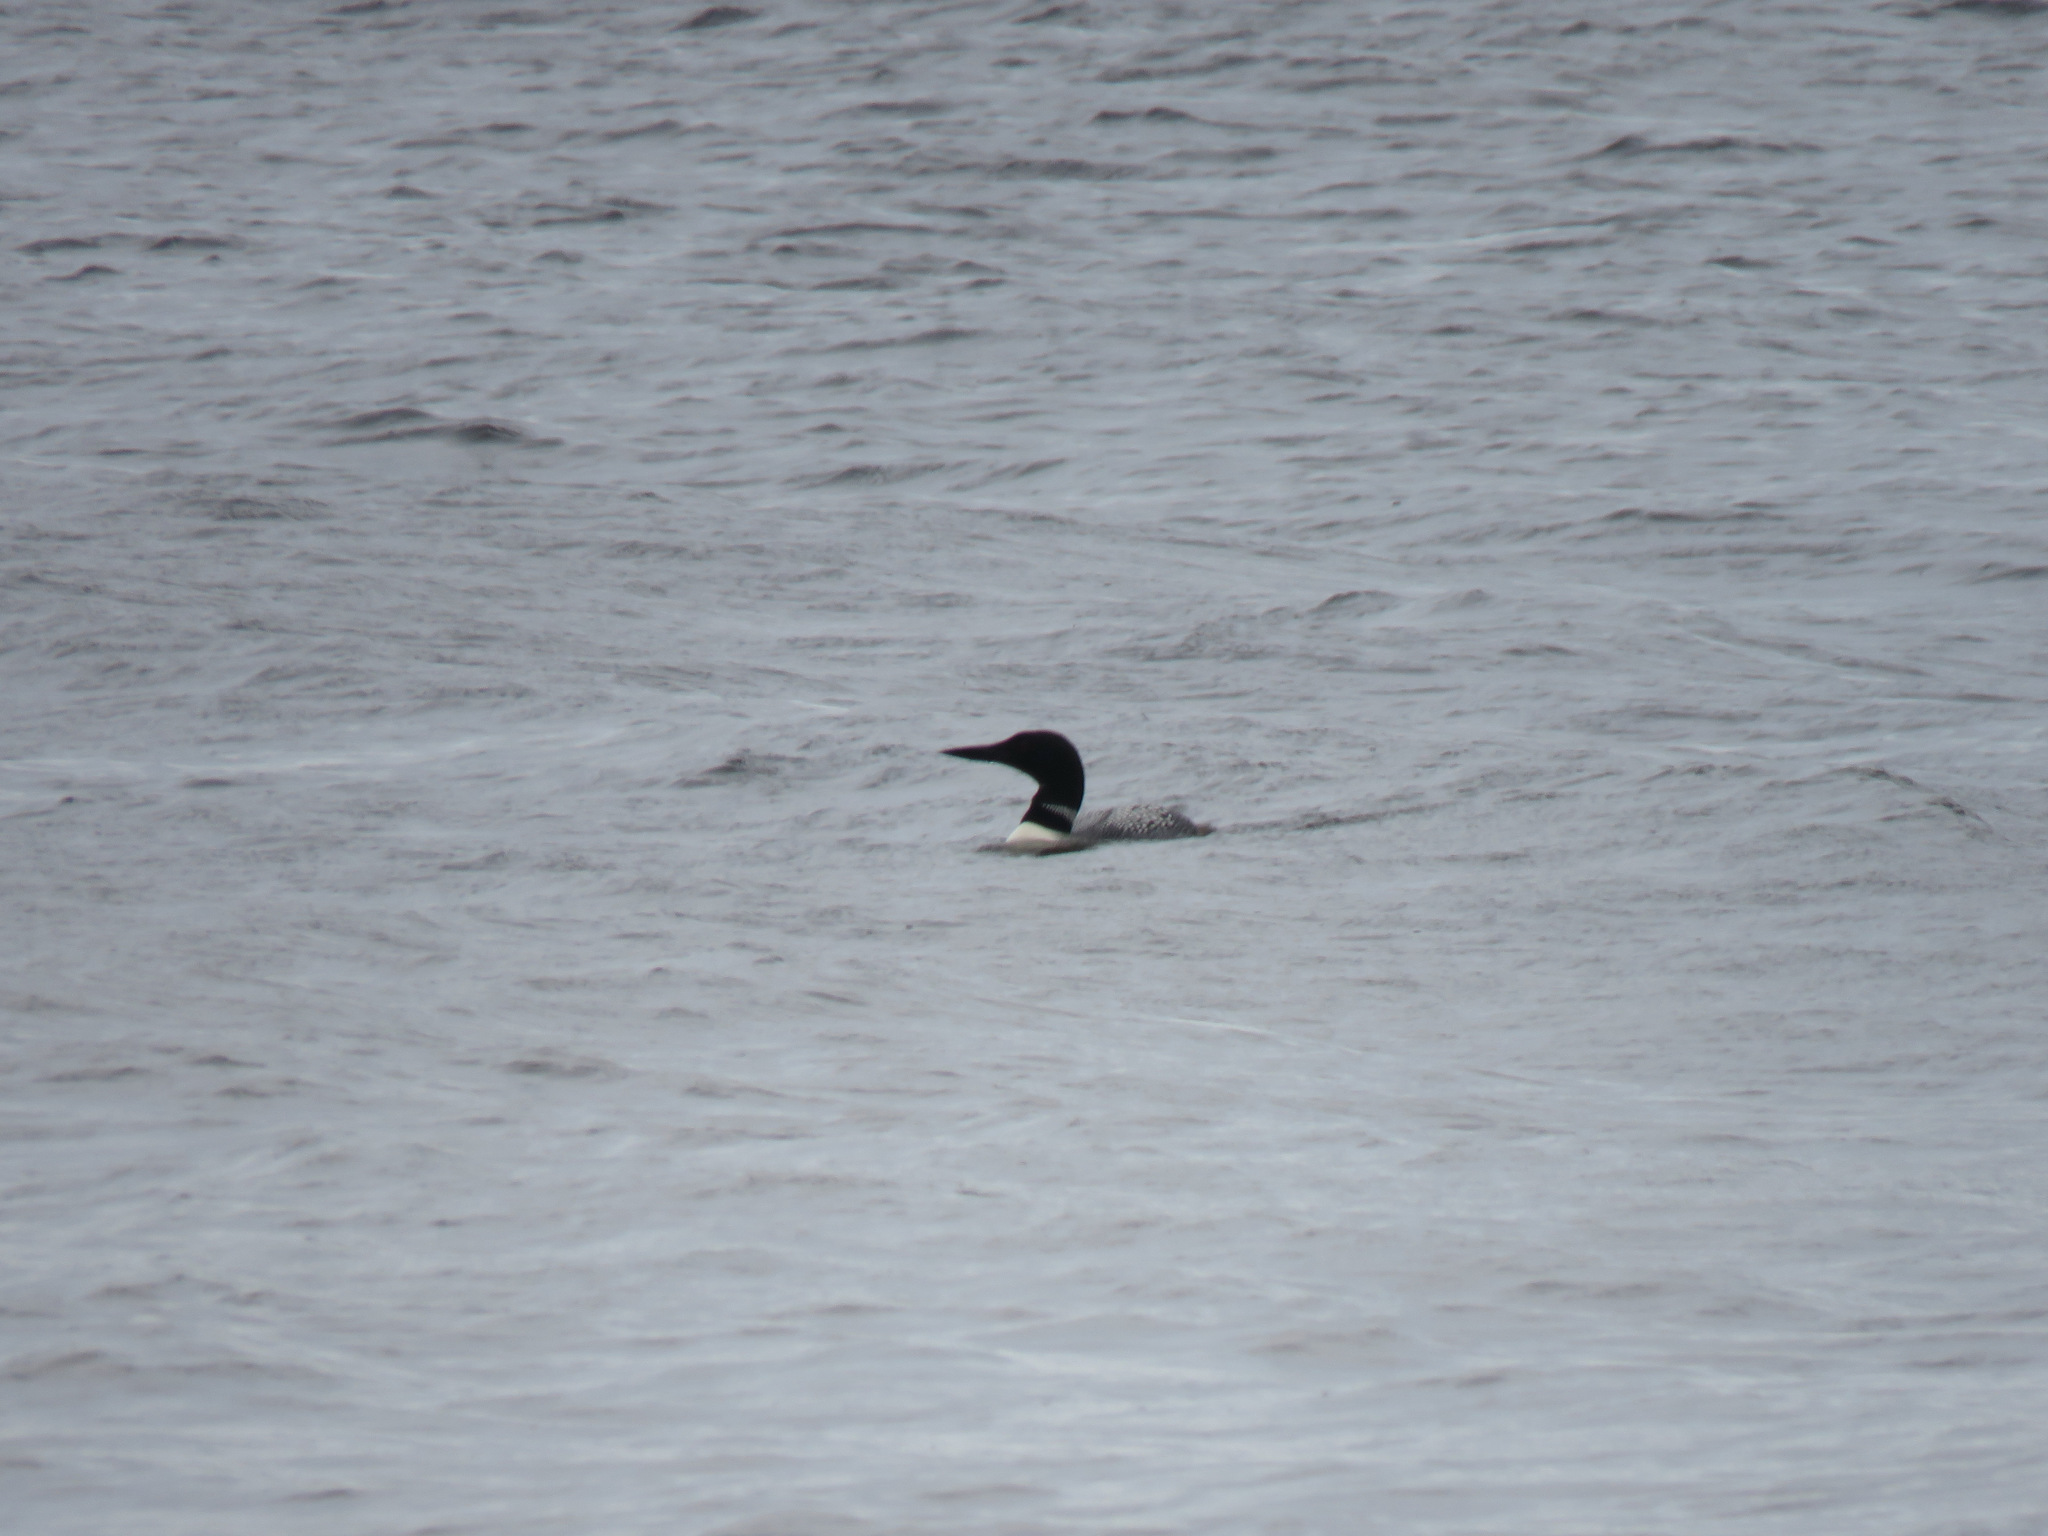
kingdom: Animalia
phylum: Chordata
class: Aves
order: Gaviiformes
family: Gaviidae
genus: Gavia
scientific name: Gavia immer
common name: Common loon
